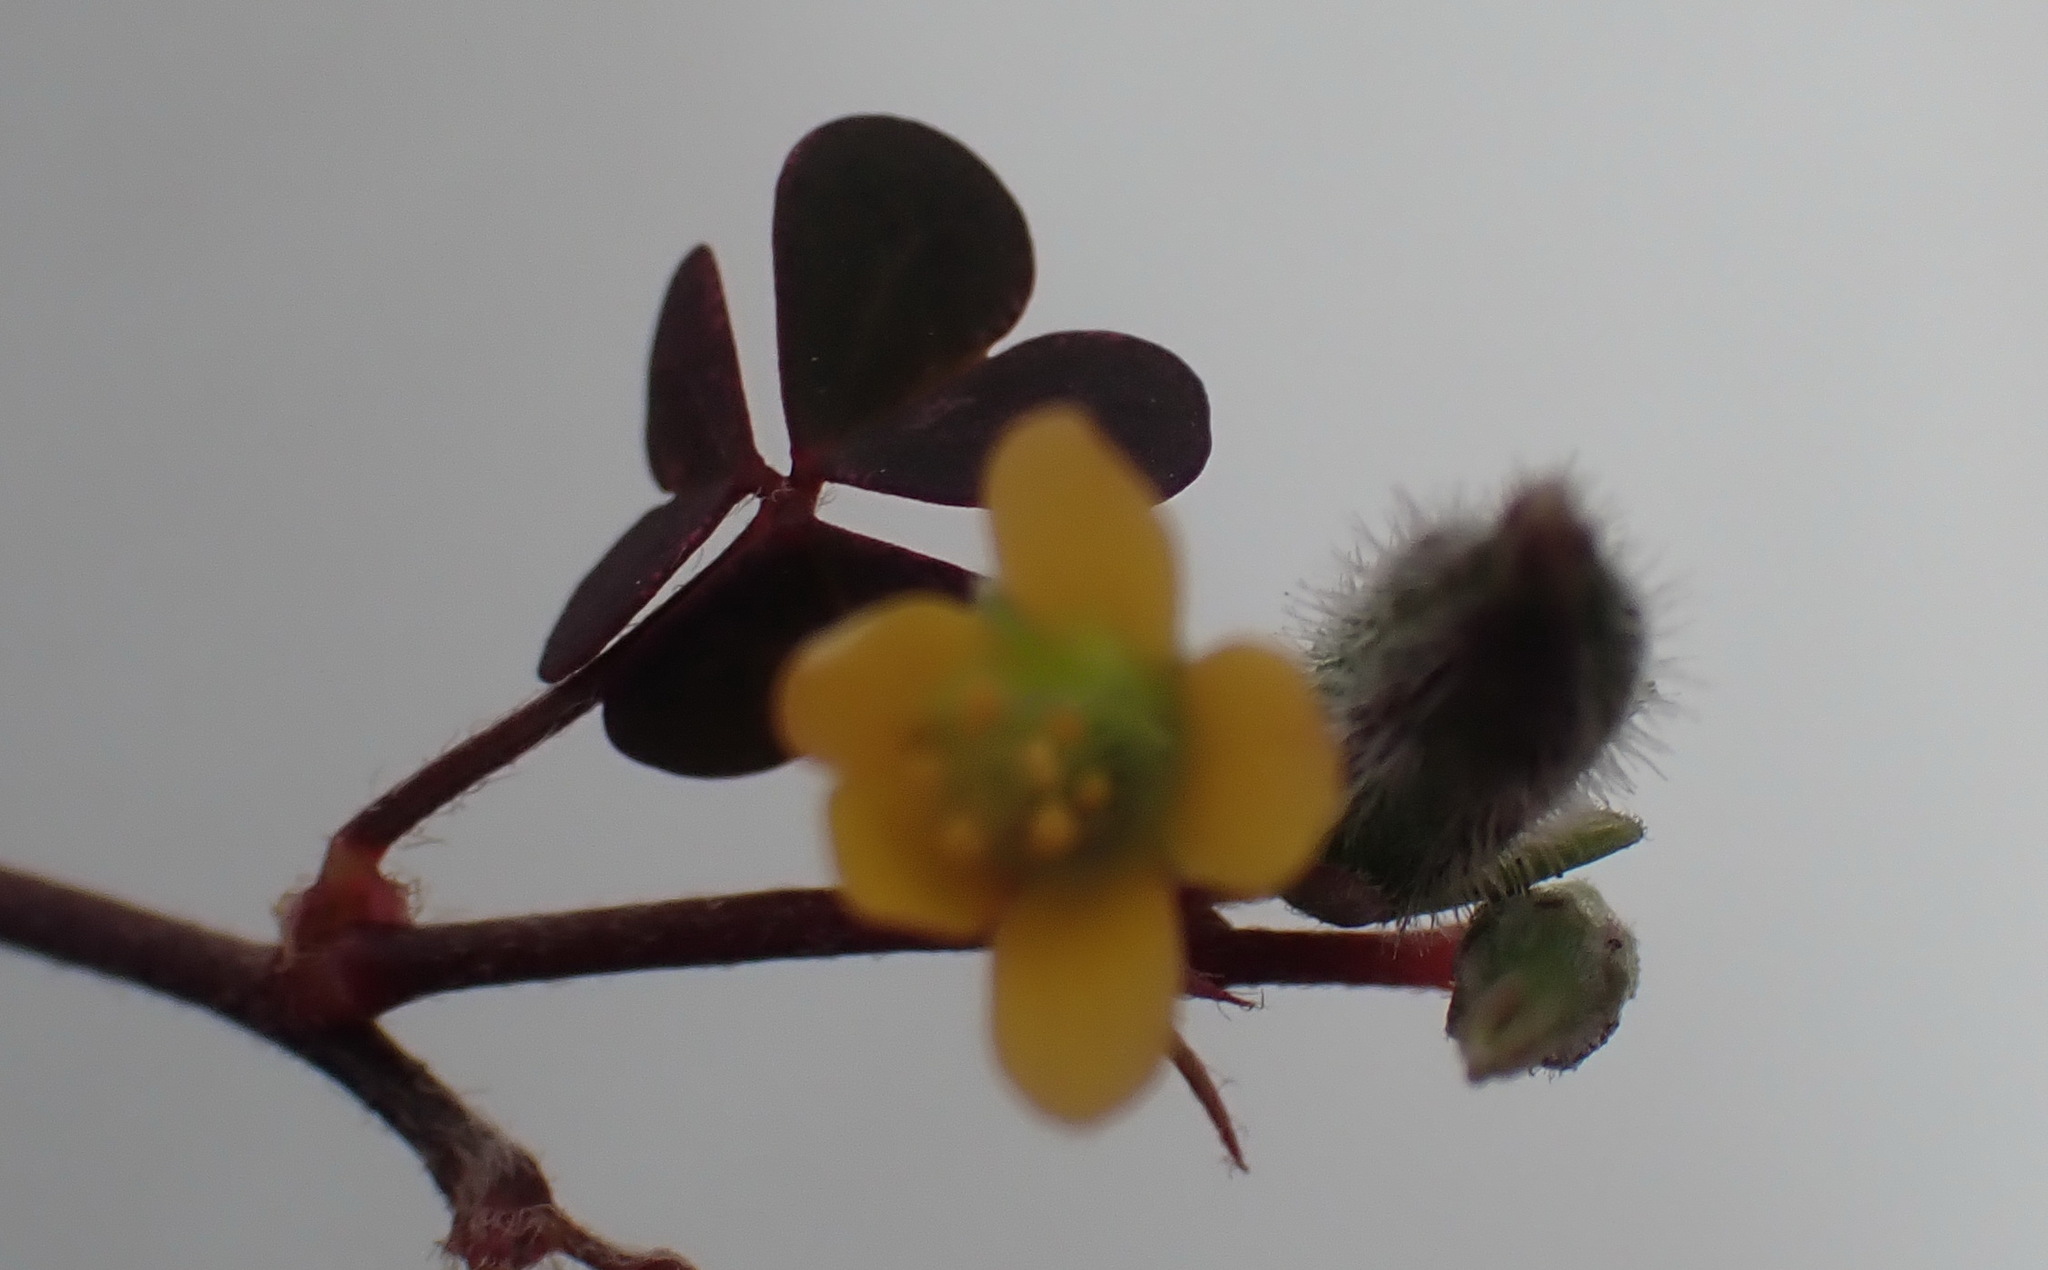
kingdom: Plantae
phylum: Tracheophyta
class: Magnoliopsida
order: Oxalidales
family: Oxalidaceae
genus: Oxalis
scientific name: Oxalis corniculata
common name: Procumbent yellow-sorrel
